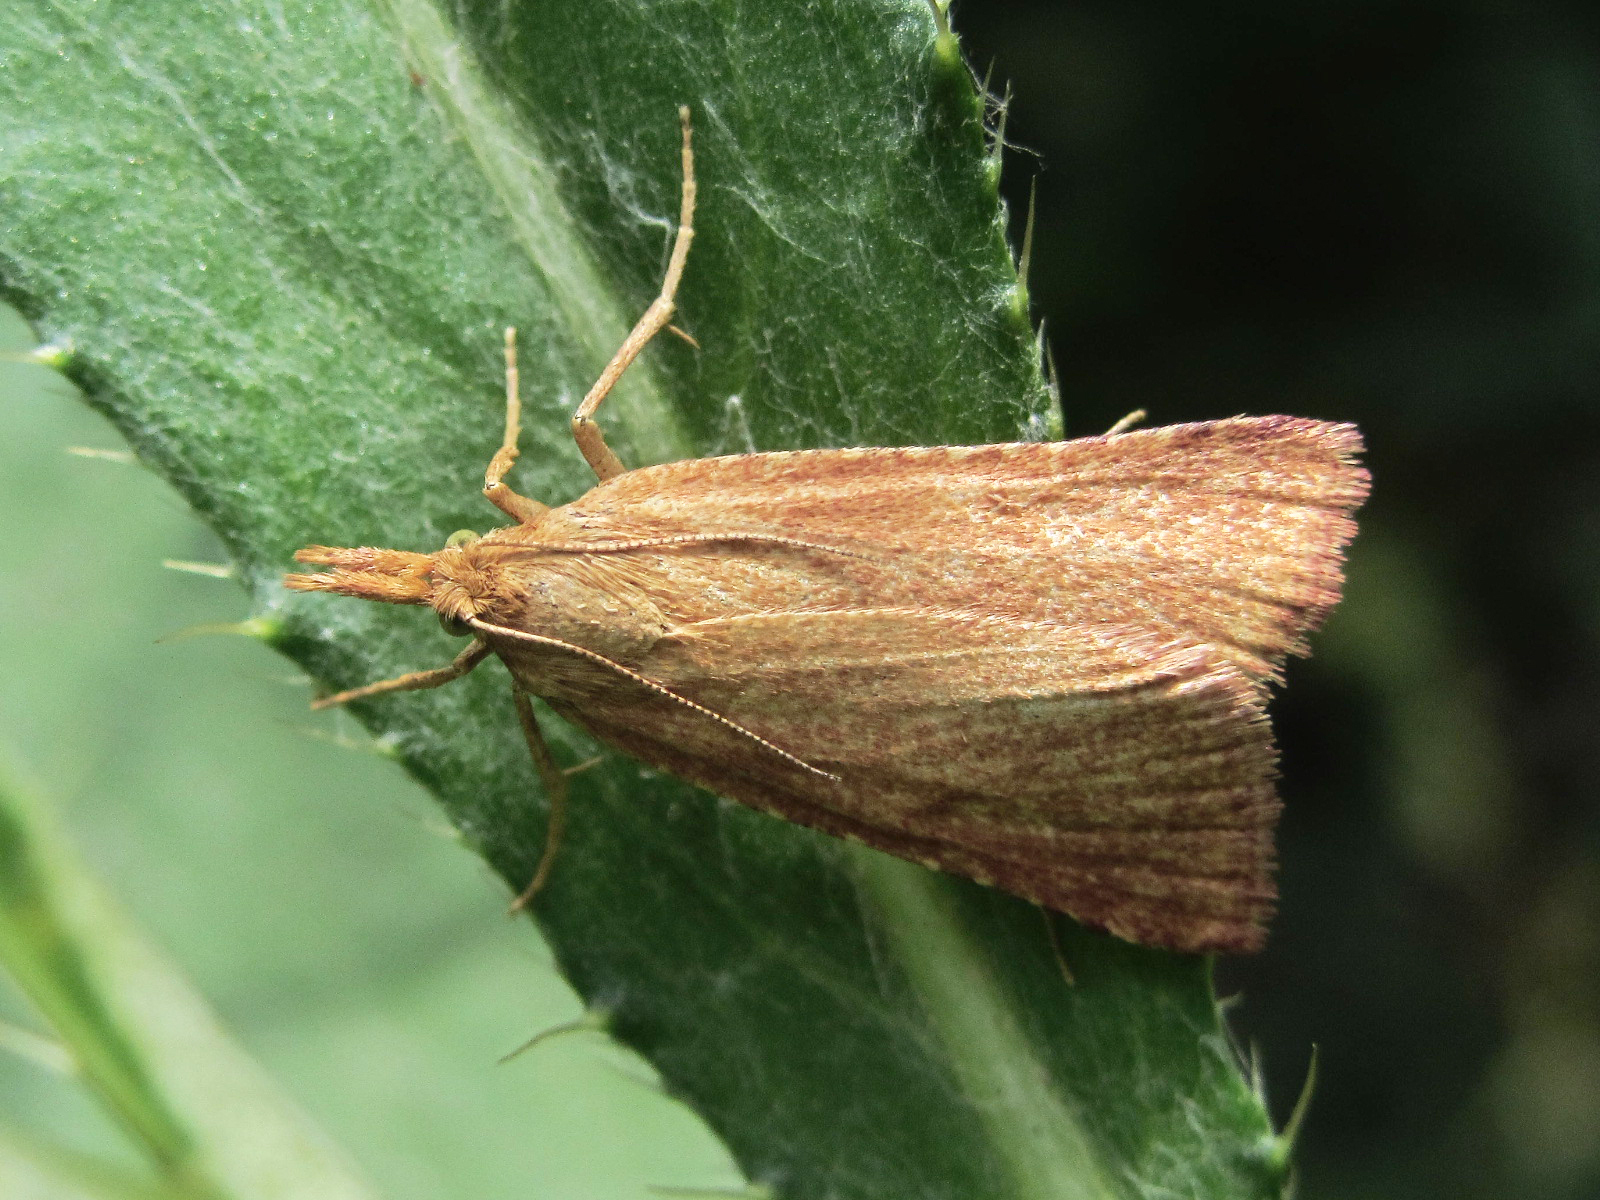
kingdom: Animalia
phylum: Arthropoda
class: Insecta
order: Lepidoptera
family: Pyralidae
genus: Synaphe
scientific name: Synaphe antennalis
